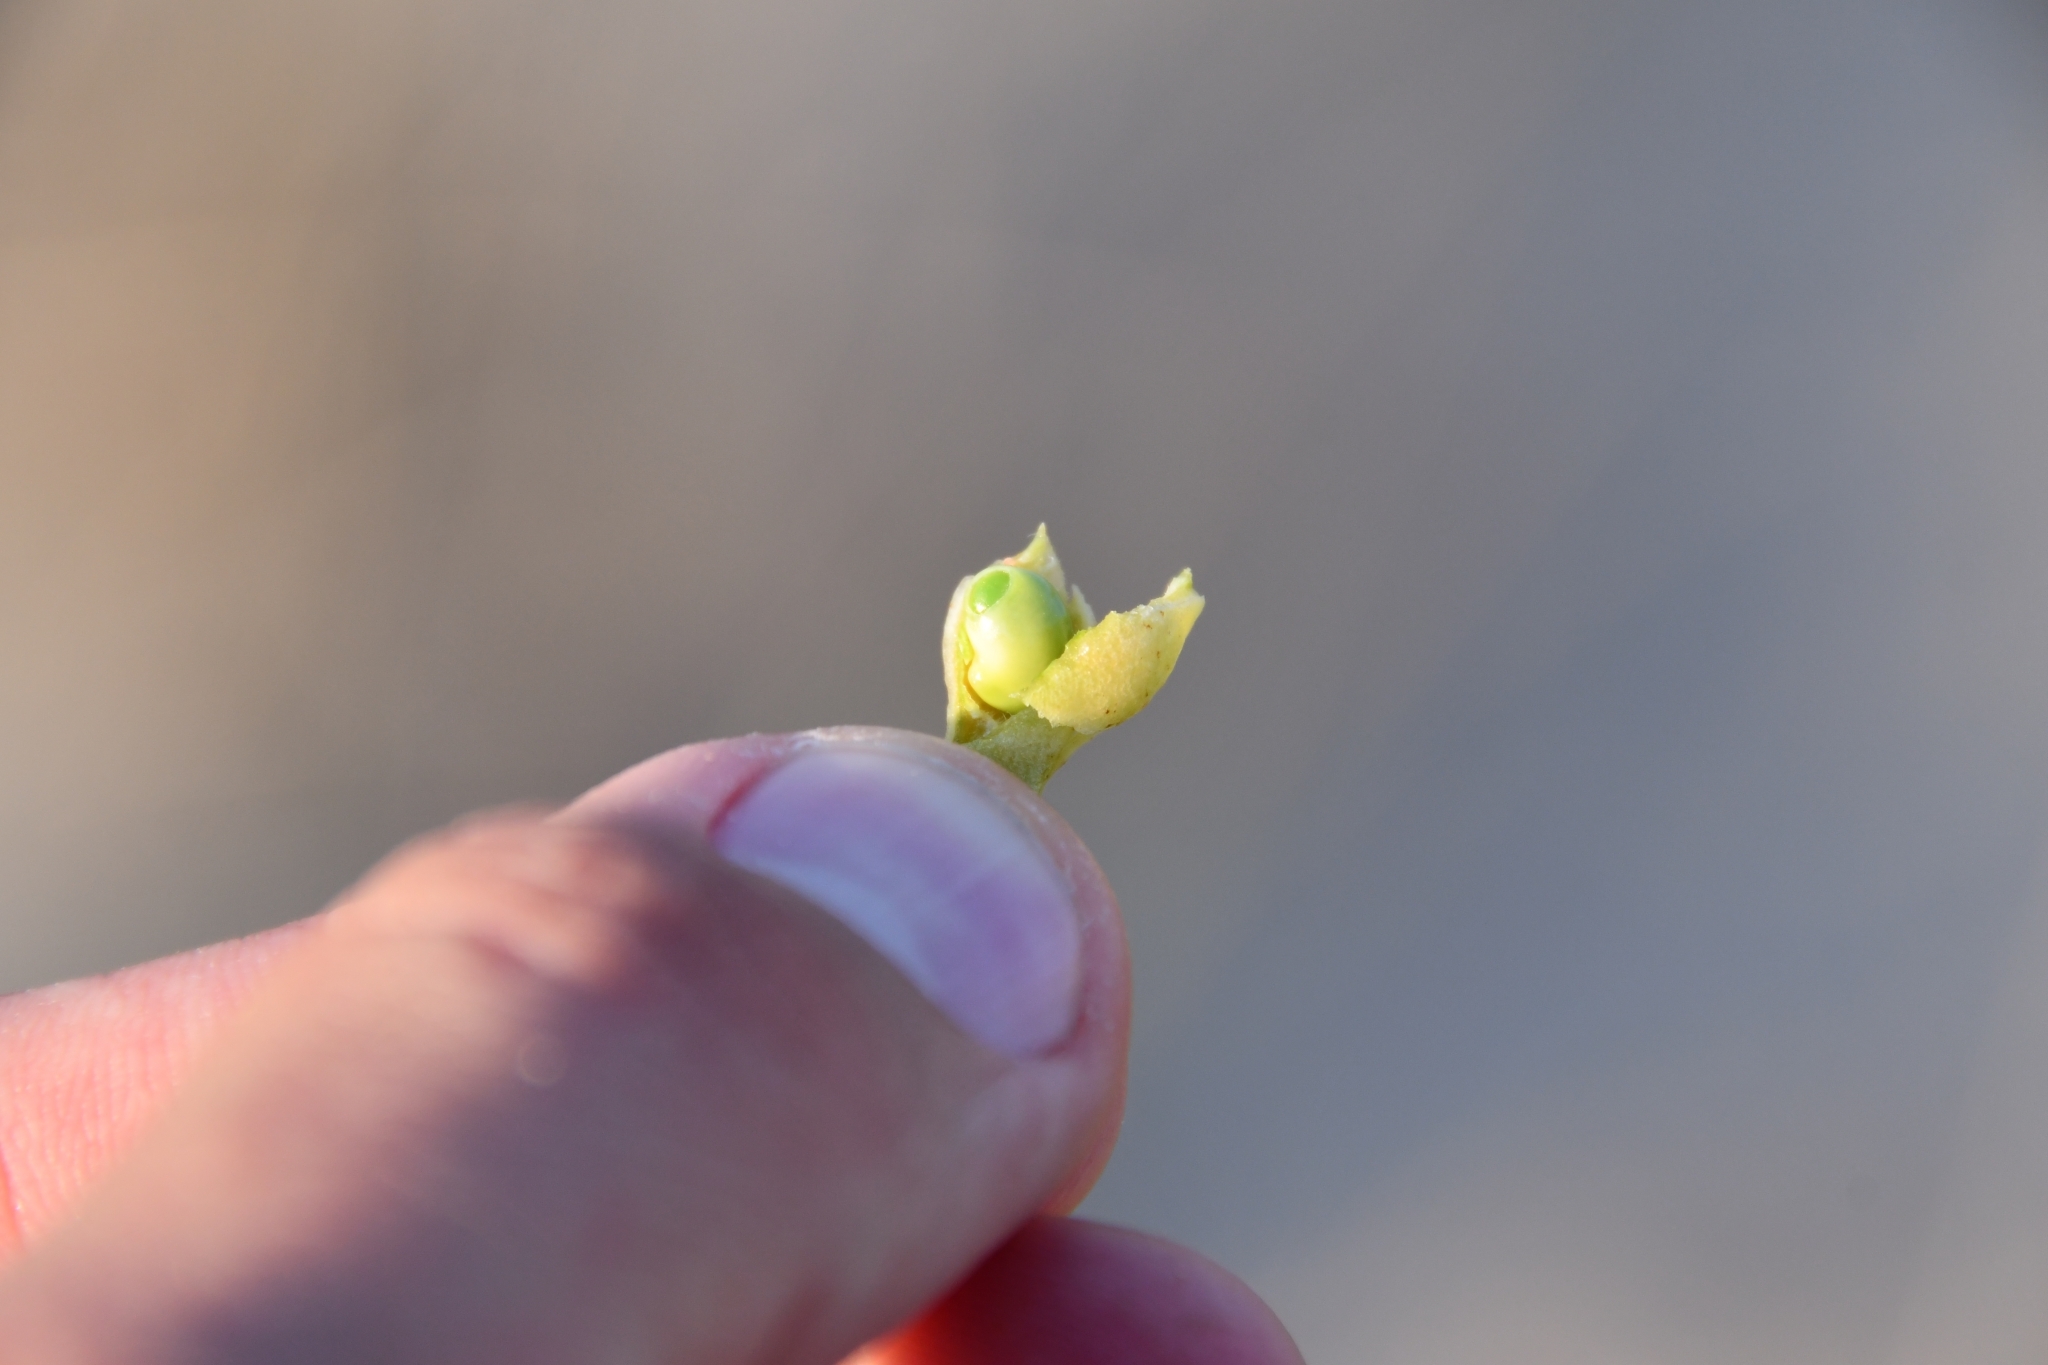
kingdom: Plantae
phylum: Tracheophyta
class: Magnoliopsida
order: Fabales
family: Fabaceae
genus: Glycyrrhiza
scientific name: Glycyrrhiza glabra
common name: Liquorice
